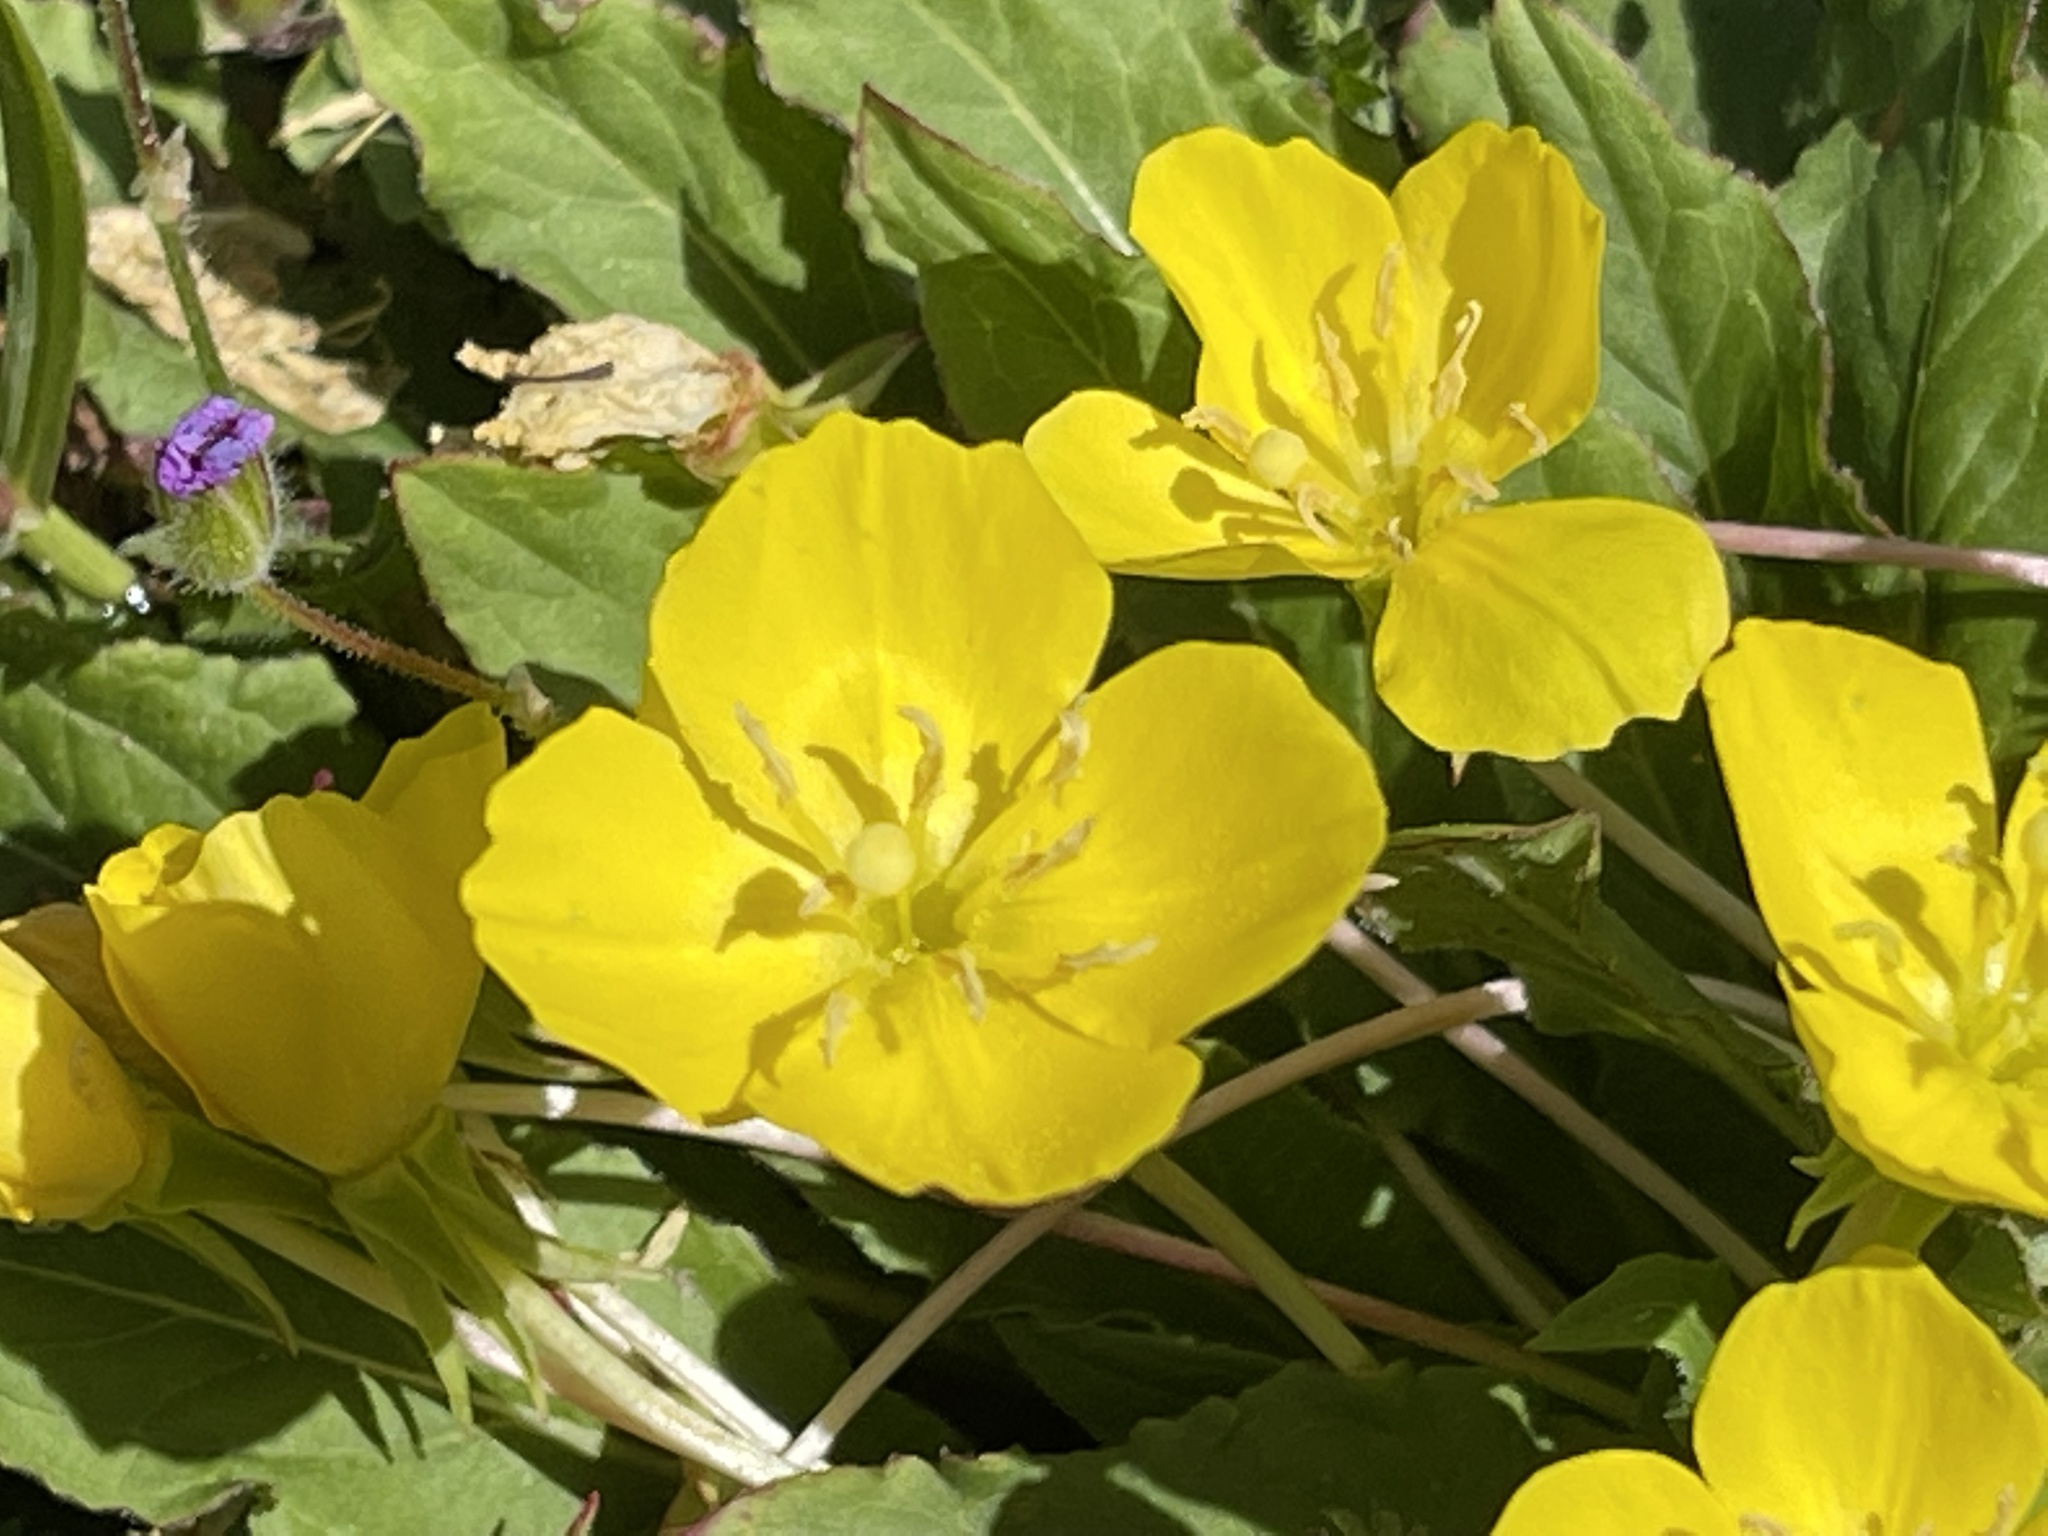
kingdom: Plantae
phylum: Tracheophyta
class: Magnoliopsida
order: Myrtales
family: Onagraceae
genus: Taraxia
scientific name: Taraxia ovata
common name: Goldeneggs
